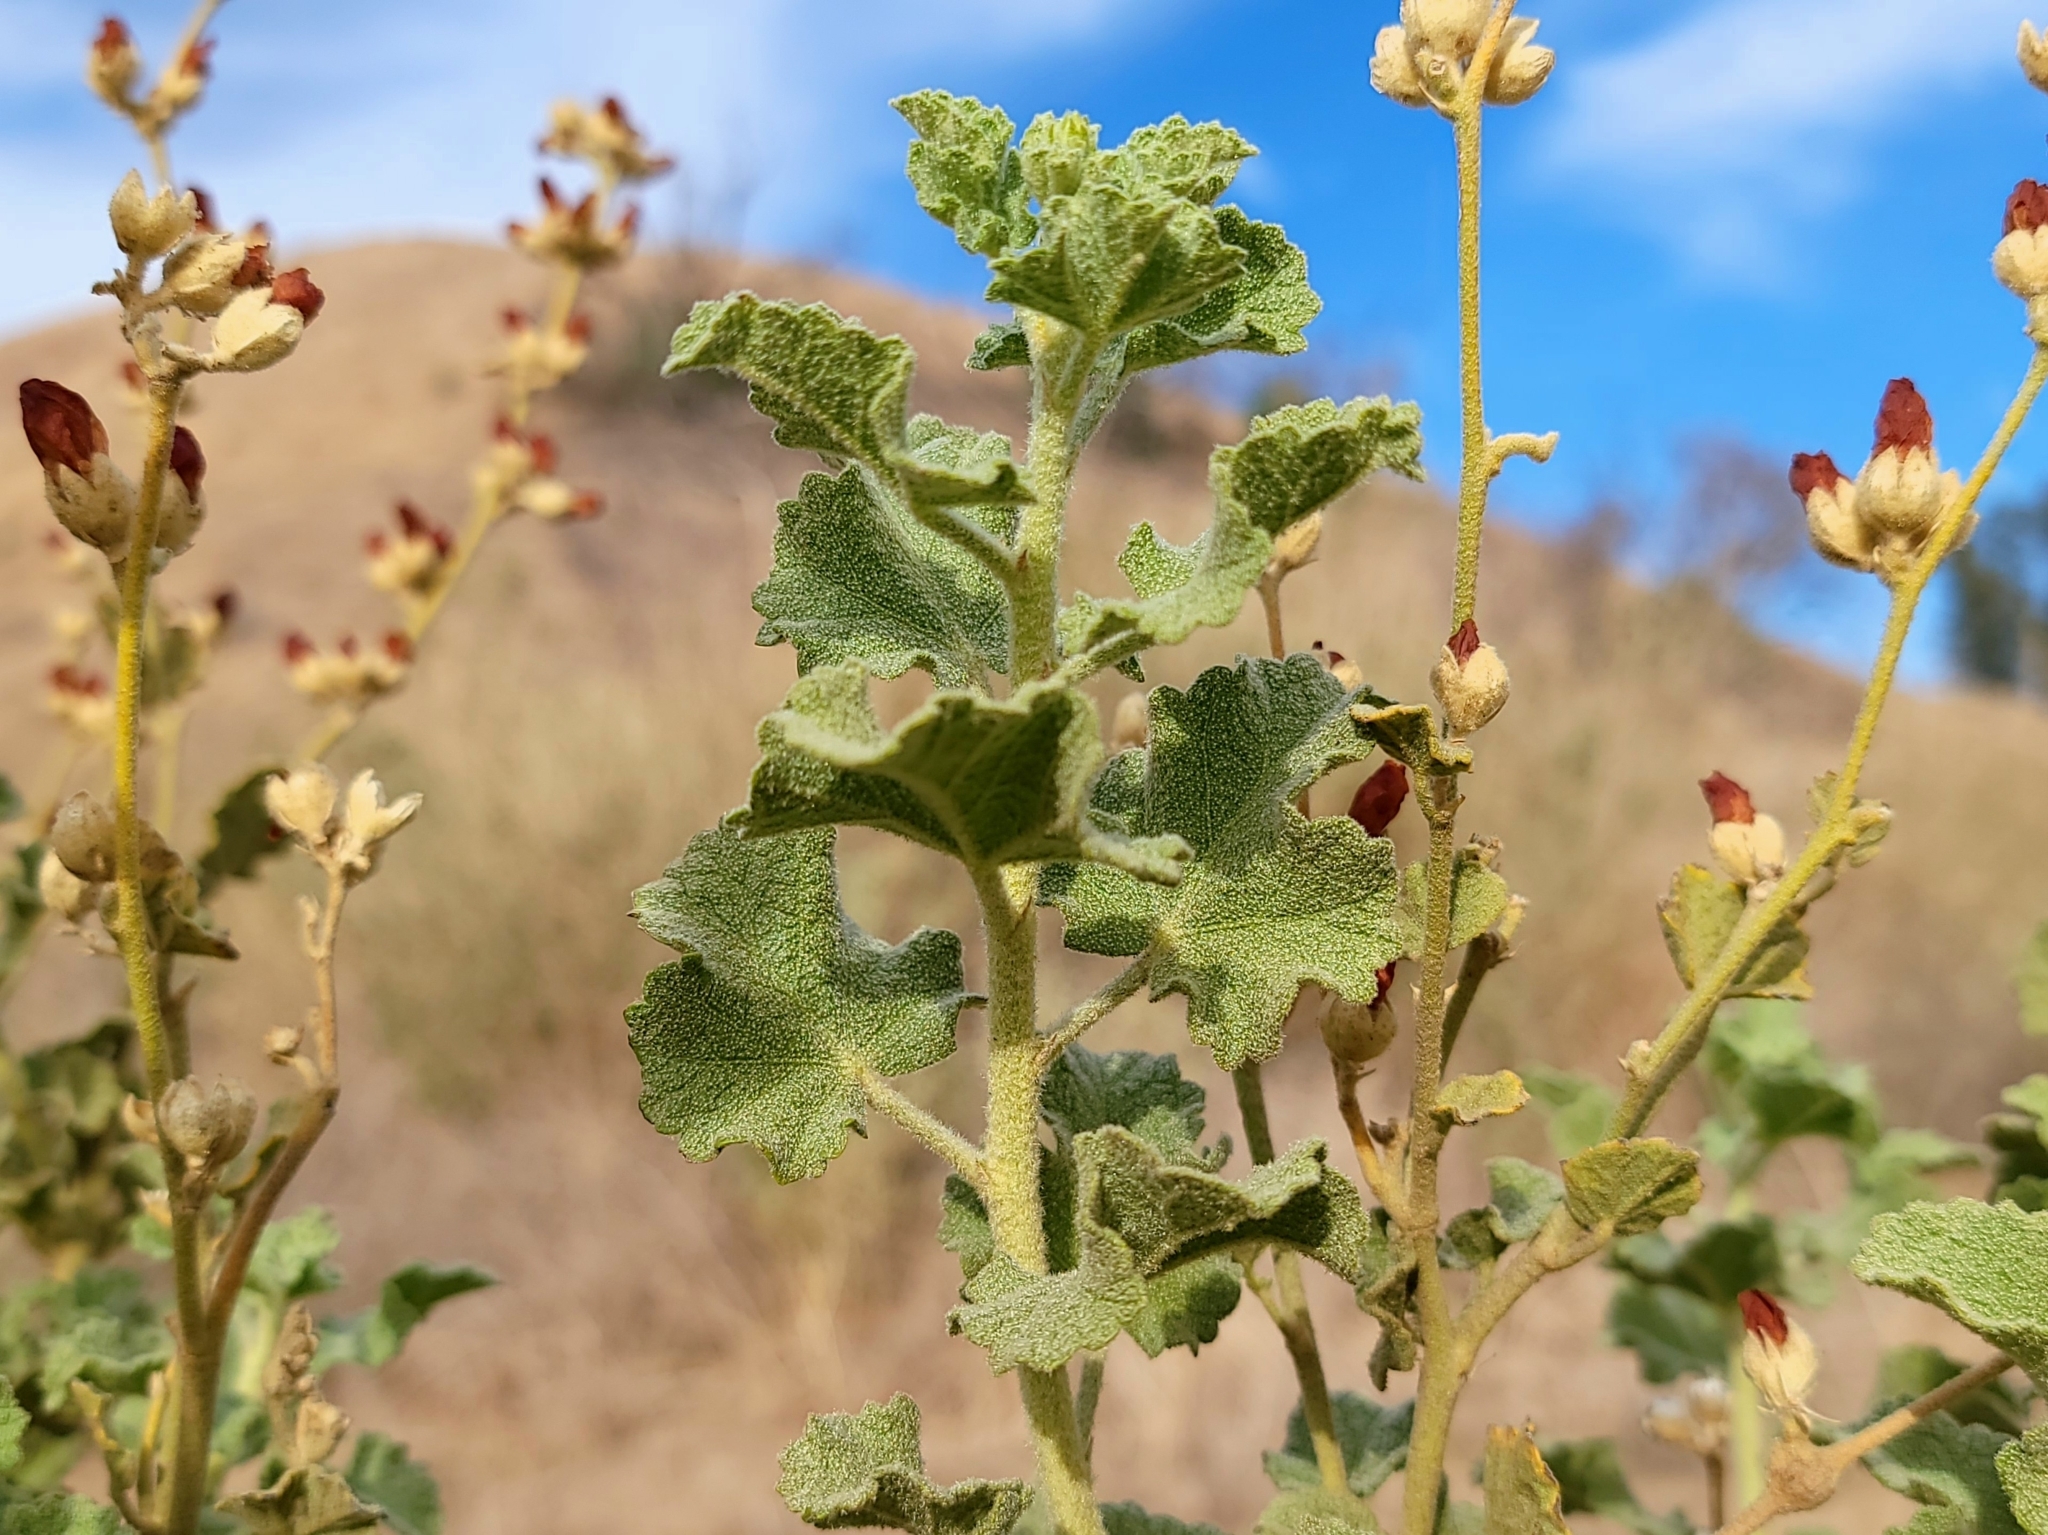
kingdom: Plantae
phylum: Tracheophyta
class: Magnoliopsida
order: Malvales
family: Malvaceae
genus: Malacothamnus
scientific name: Malacothamnus fremontii
